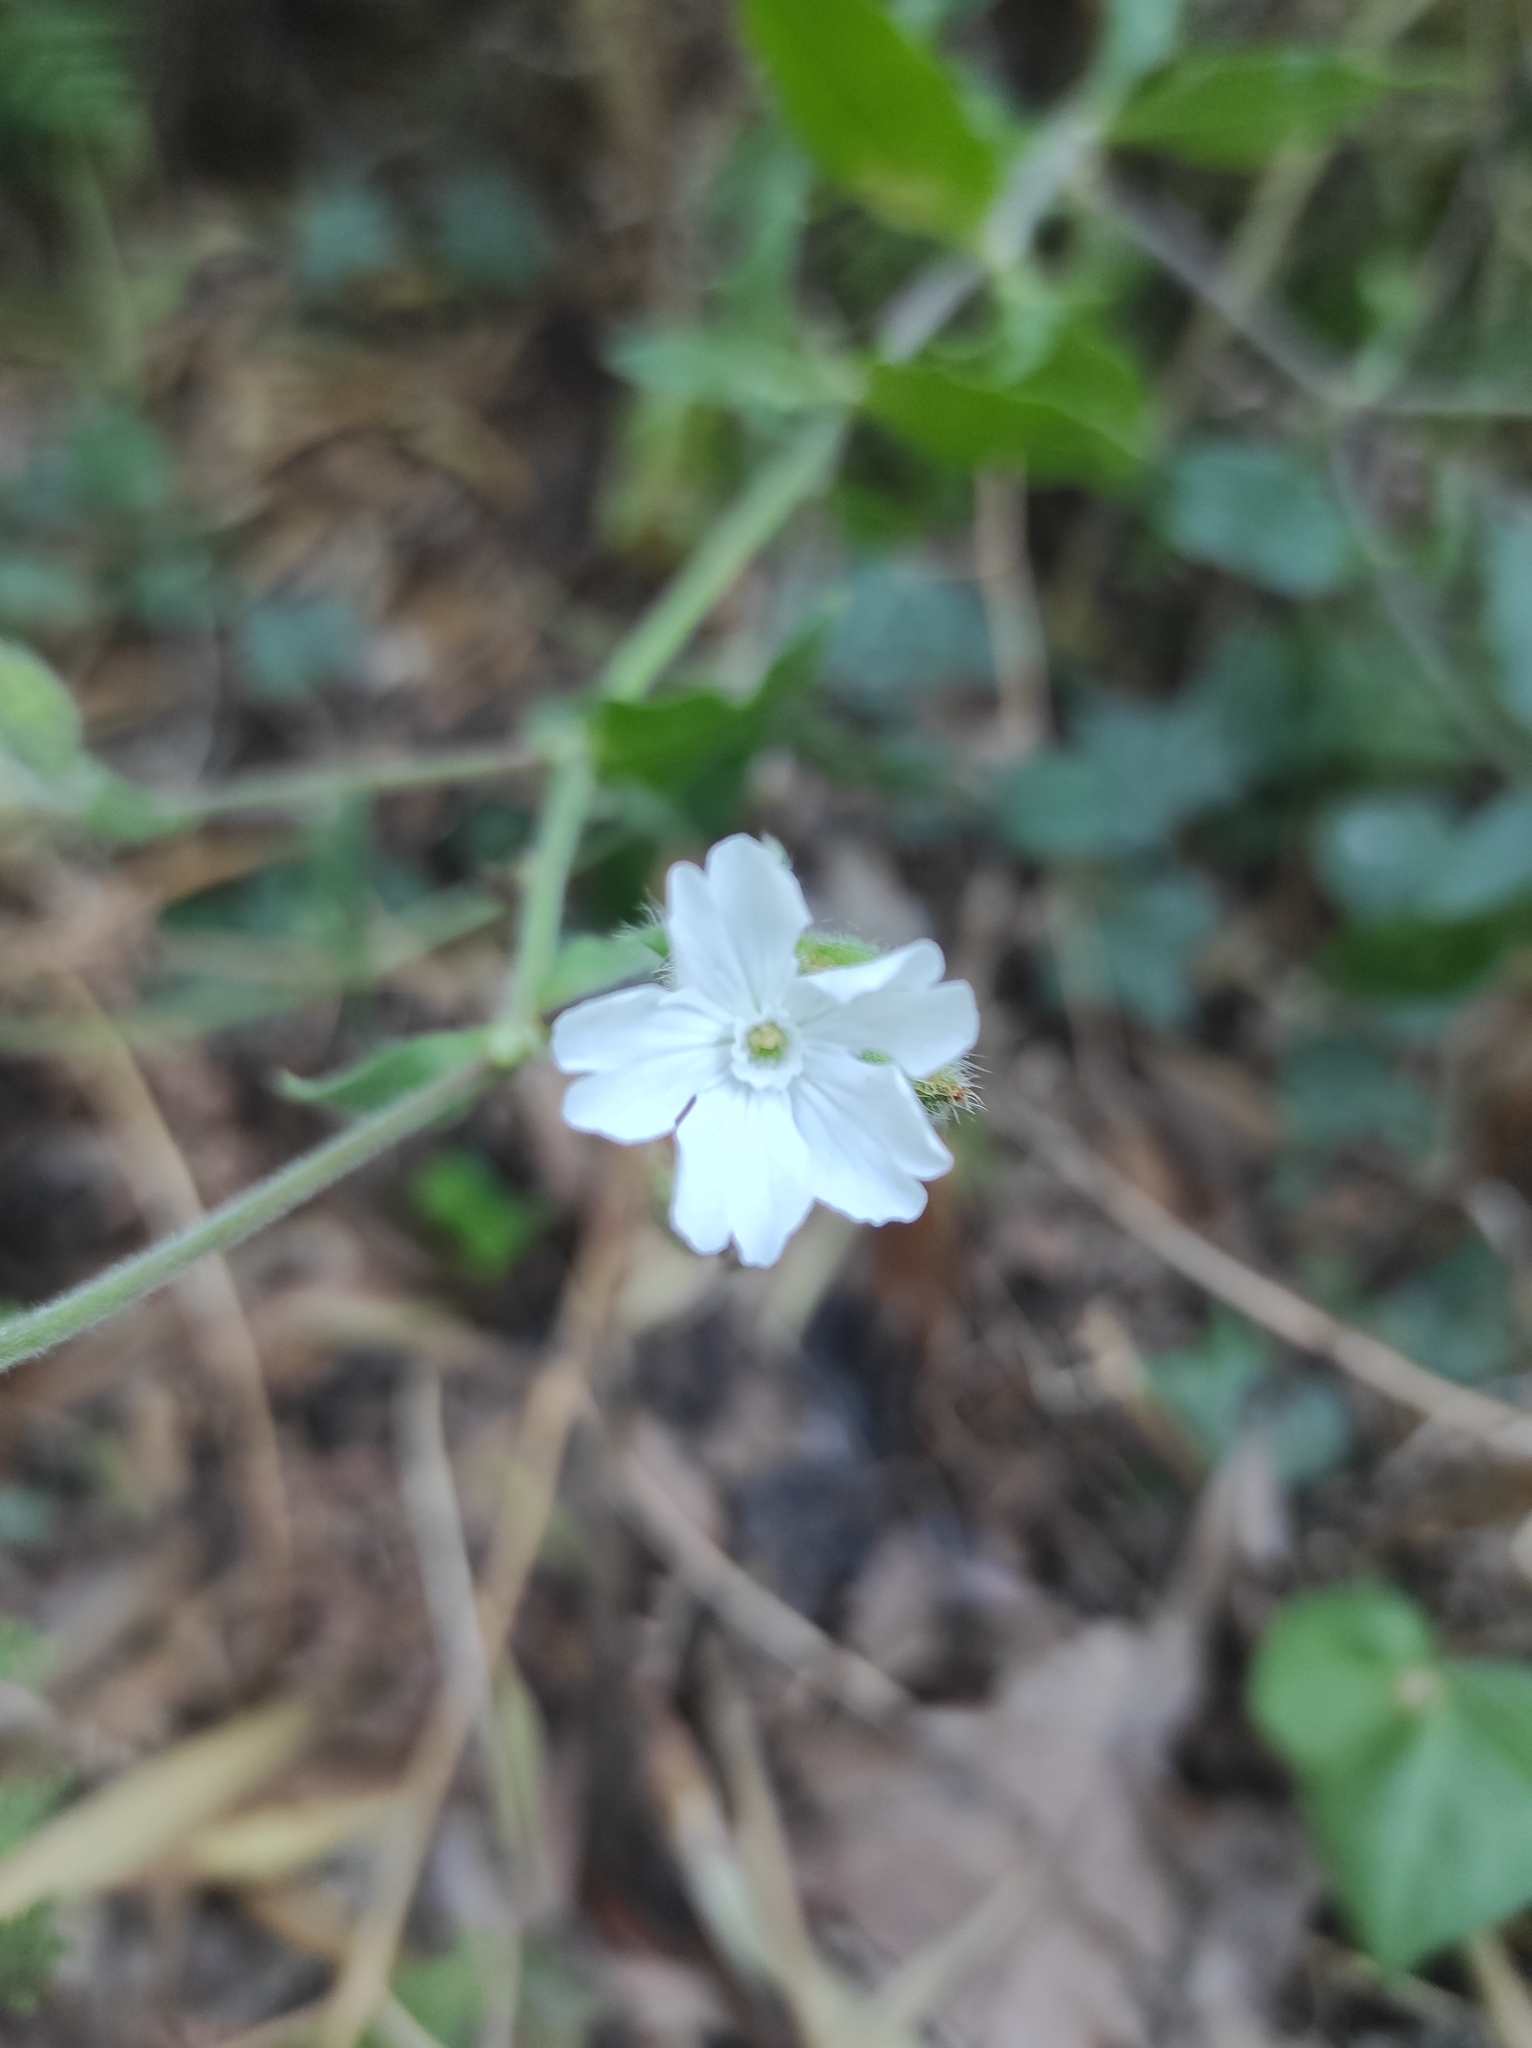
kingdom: Plantae
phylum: Tracheophyta
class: Magnoliopsida
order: Caryophyllales
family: Caryophyllaceae
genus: Silene
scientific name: Silene latifolia
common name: White campion
